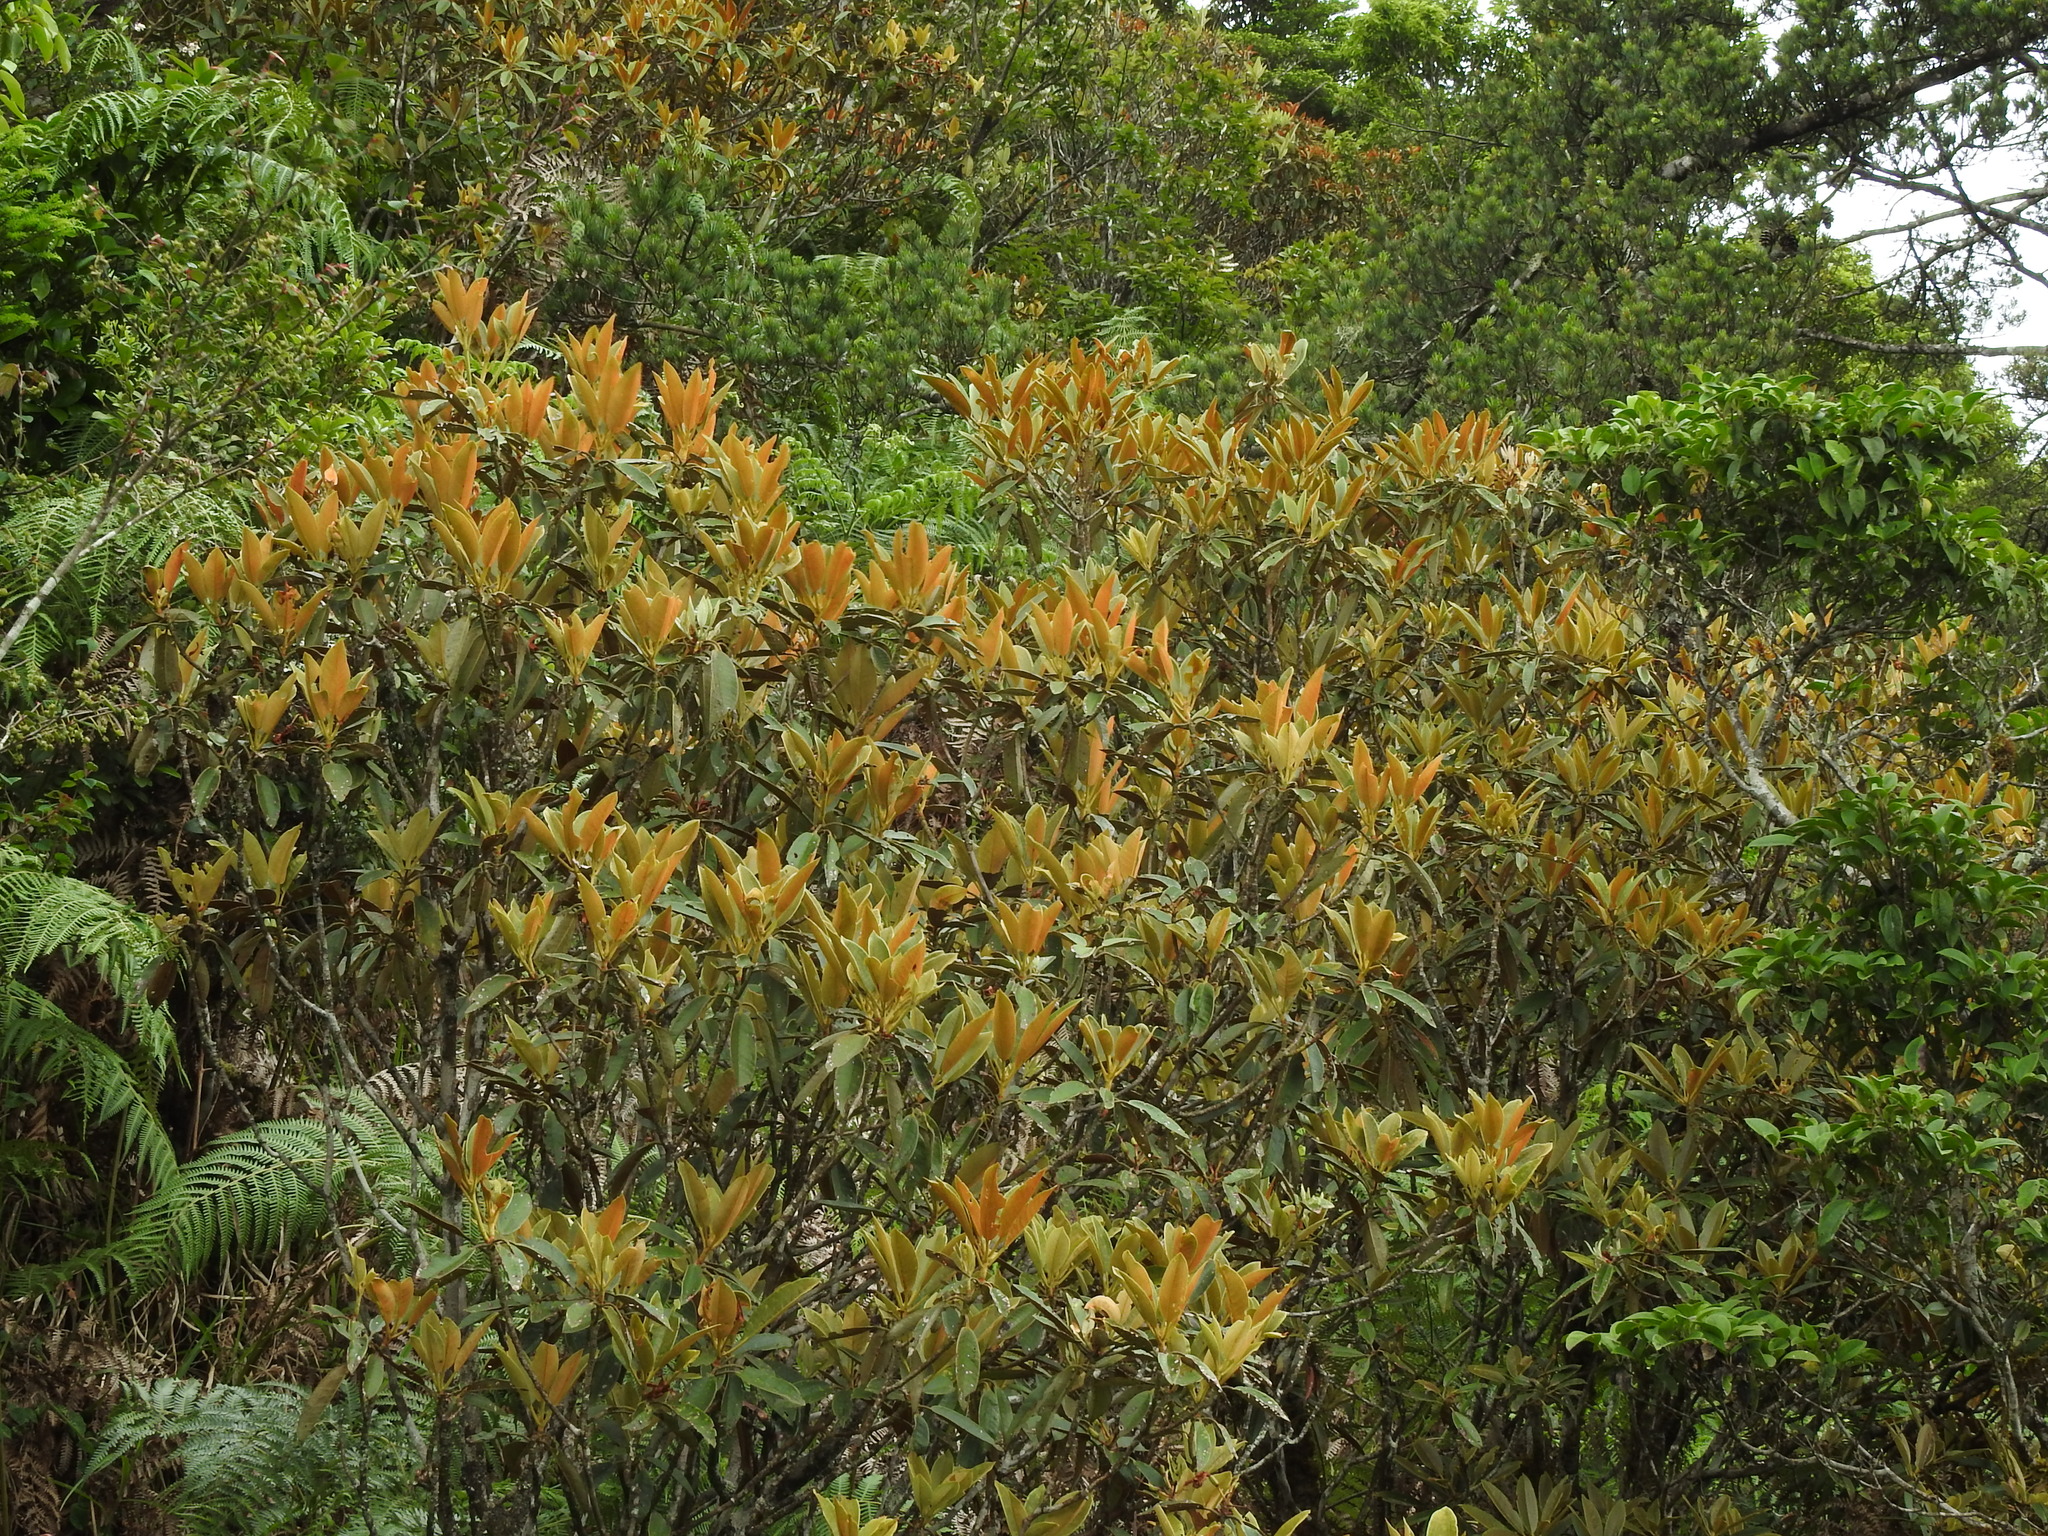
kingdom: Plantae
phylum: Tracheophyta
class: Magnoliopsida
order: Ericales
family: Ericaceae
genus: Rhododendron
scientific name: Rhododendron hyperythrum
